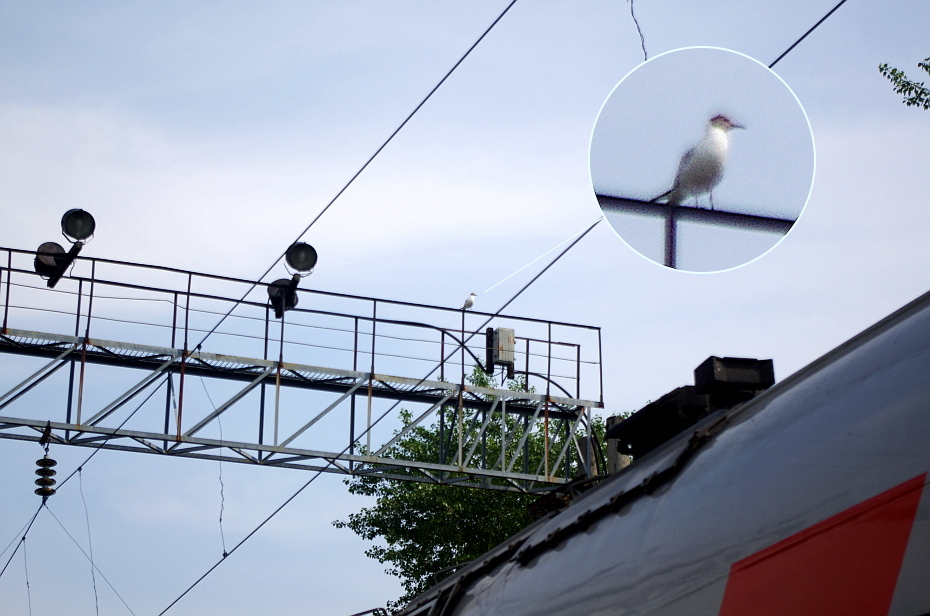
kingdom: Animalia
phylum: Chordata
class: Aves
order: Charadriiformes
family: Laridae
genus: Chroicocephalus
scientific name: Chroicocephalus ridibundus
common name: Black-headed gull
